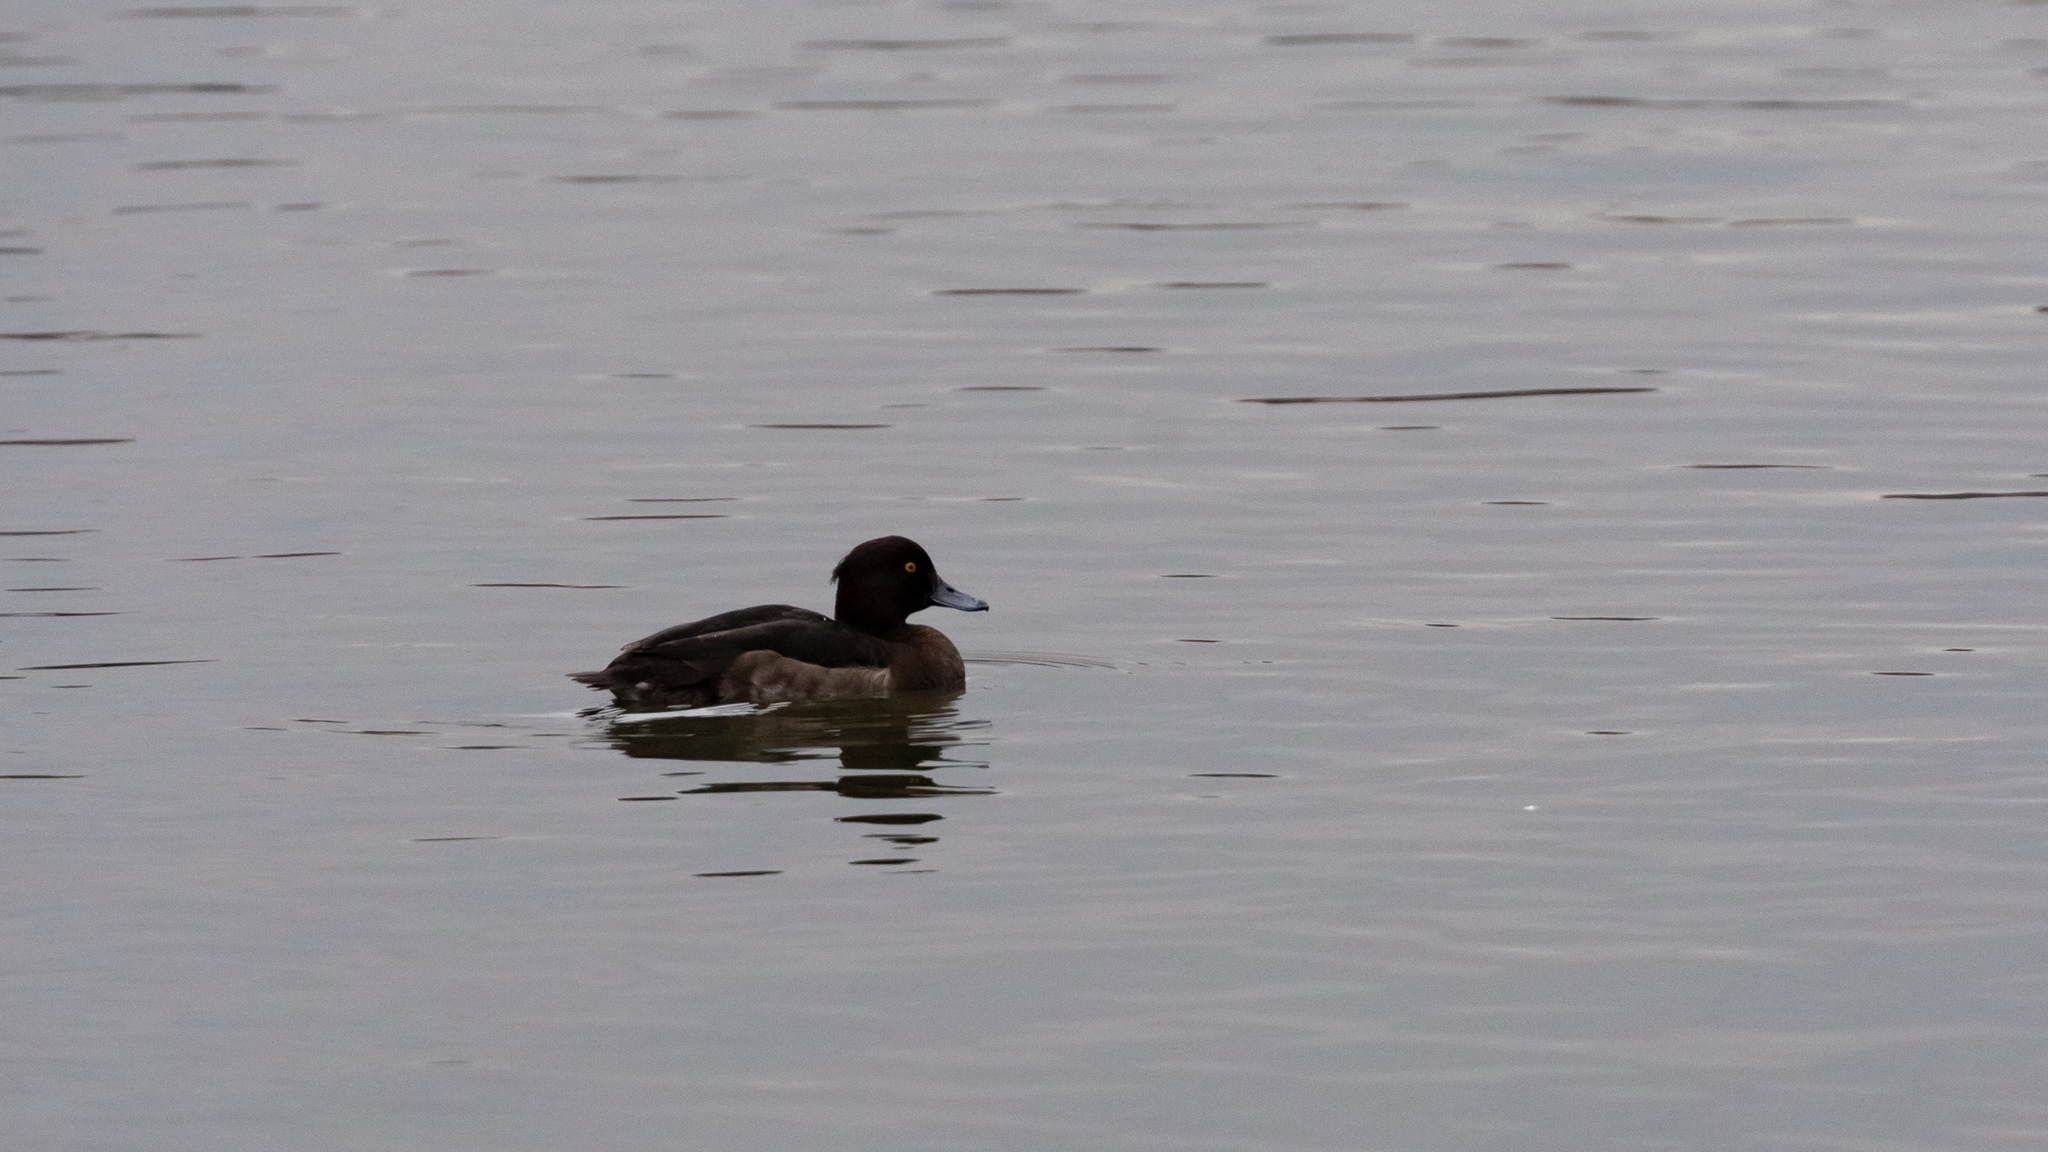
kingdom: Animalia
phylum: Chordata
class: Aves
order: Anseriformes
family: Anatidae
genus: Aythya
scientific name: Aythya fuligula
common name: Tufted duck
